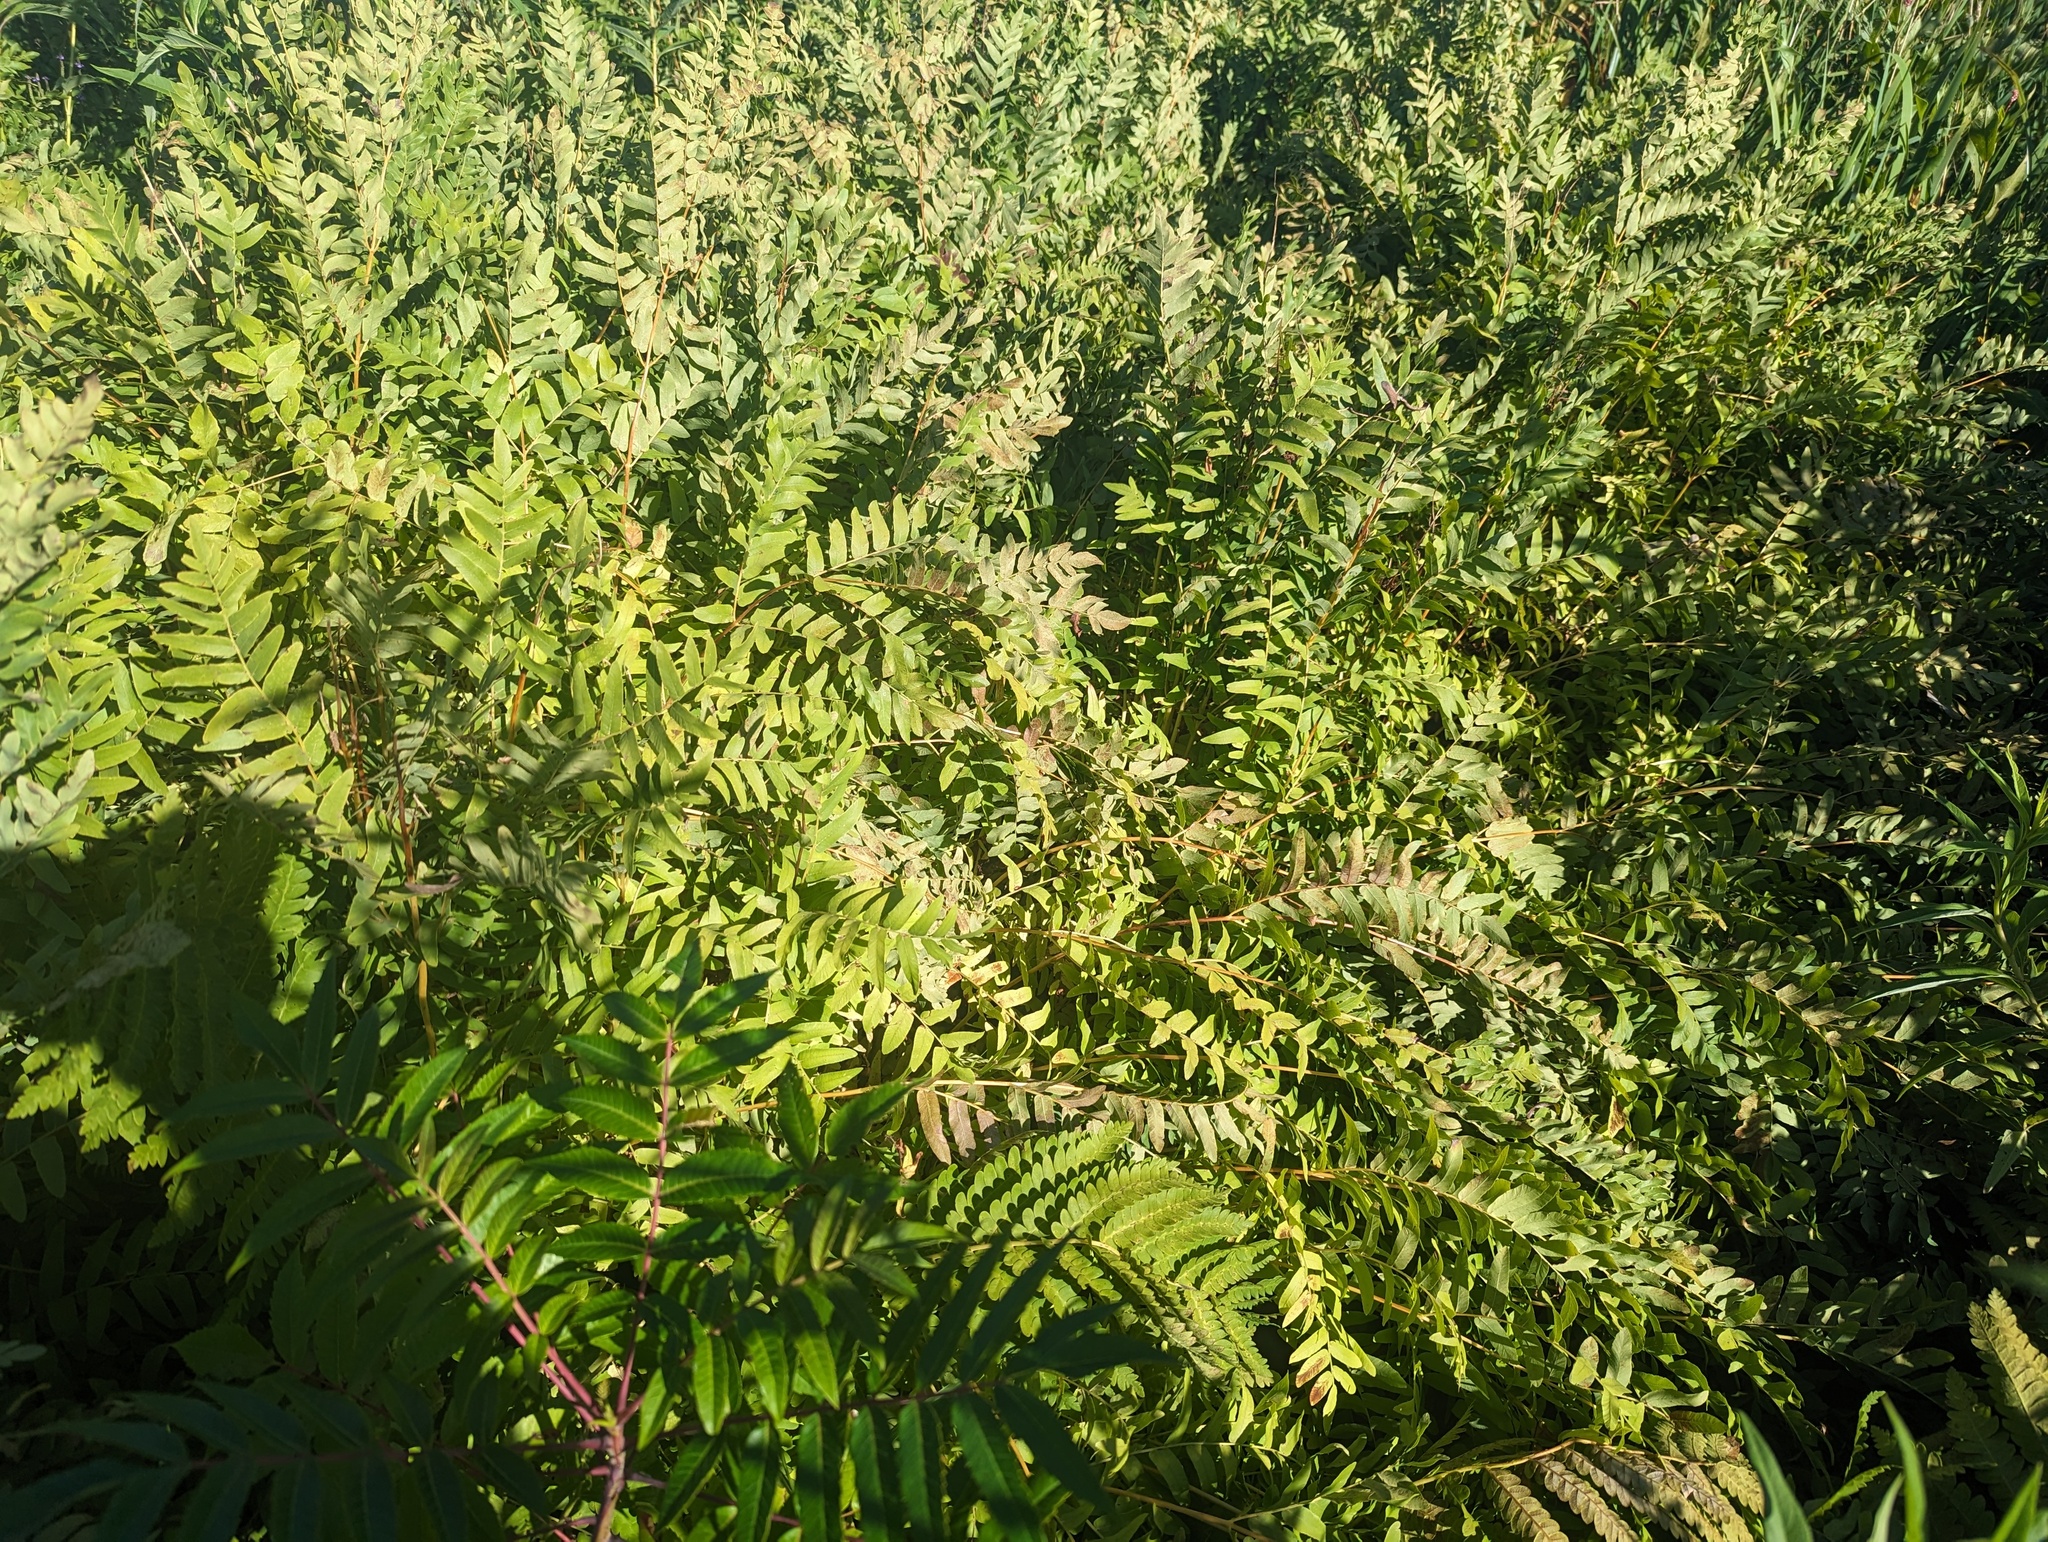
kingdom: Plantae
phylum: Tracheophyta
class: Polypodiopsida
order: Osmundales
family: Osmundaceae
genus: Osmunda
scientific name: Osmunda spectabilis
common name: American royal fern
